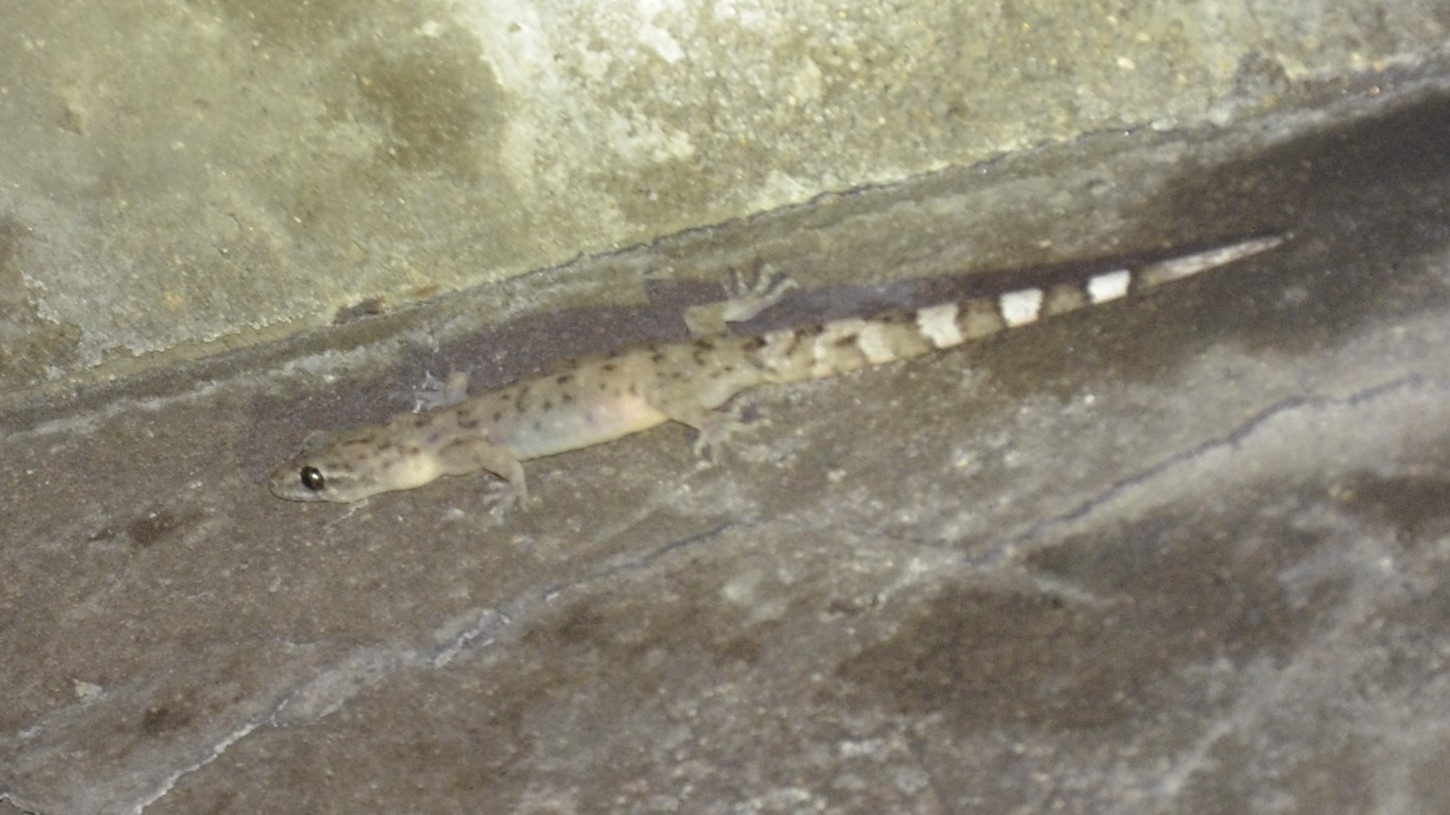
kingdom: Animalia
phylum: Chordata
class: Squamata
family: Gekkonidae
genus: Dravidogecko
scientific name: Dravidogecko anamallensis
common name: Anaimalai dravidogecko
